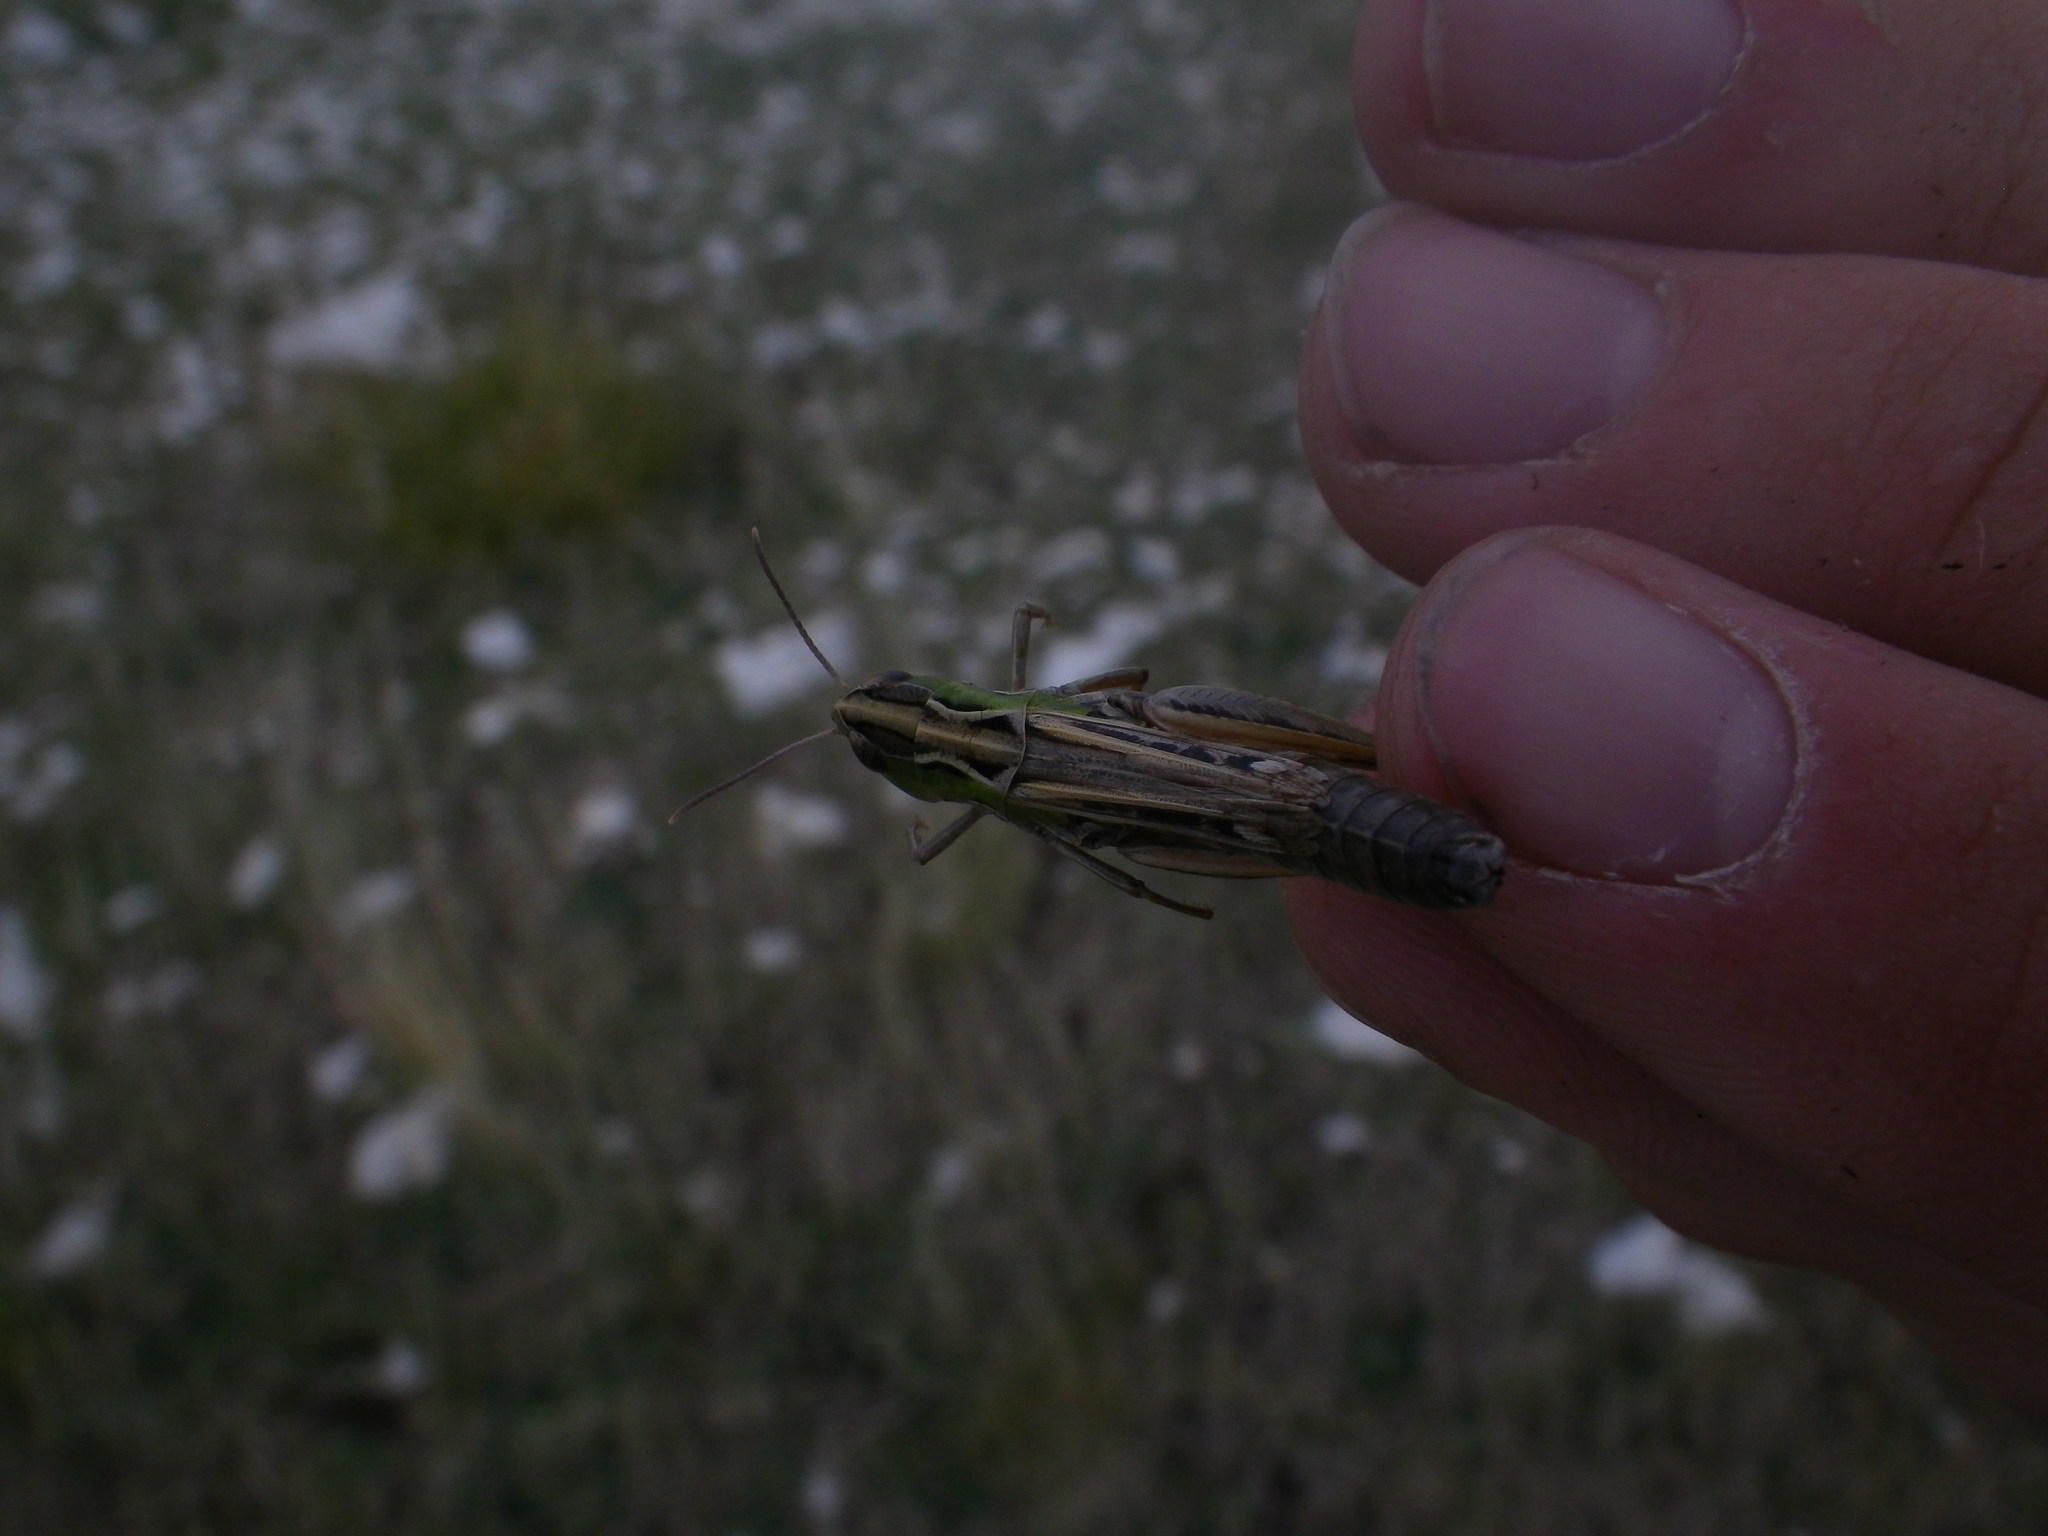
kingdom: Animalia
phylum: Arthropoda
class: Insecta
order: Orthoptera
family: Acrididae
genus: Stenobothrus
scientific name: Stenobothrus nigromaculatus
